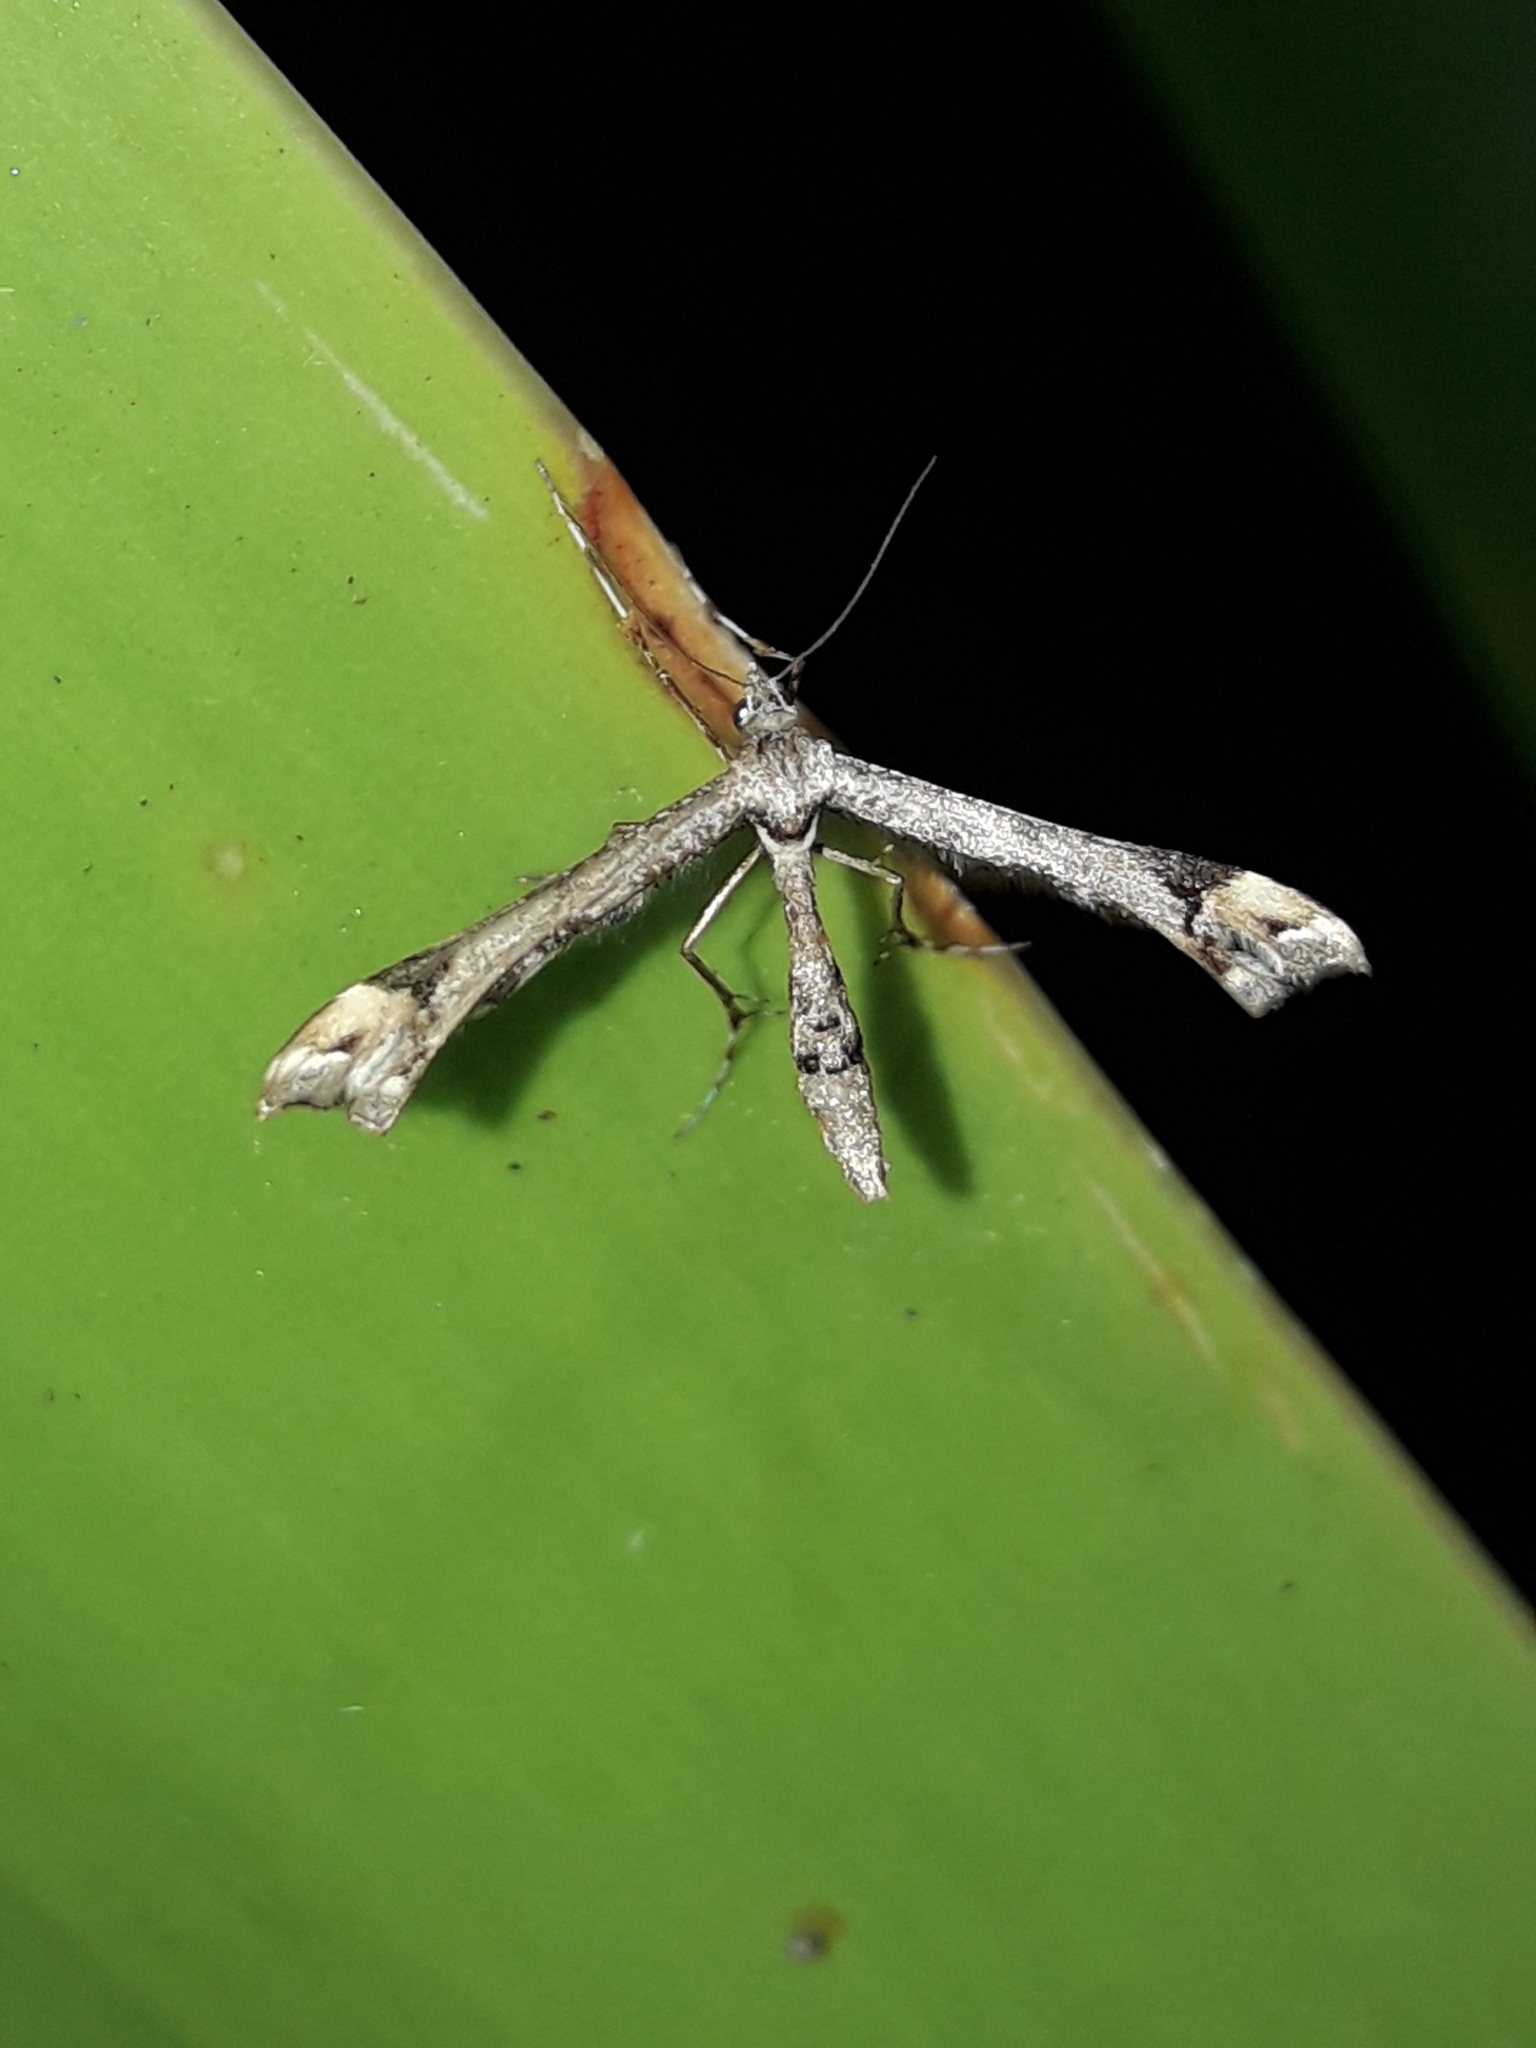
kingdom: Animalia
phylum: Arthropoda
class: Insecta
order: Lepidoptera
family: Pterophoridae
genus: Amblyptilia
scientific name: Amblyptilia falcatalis
